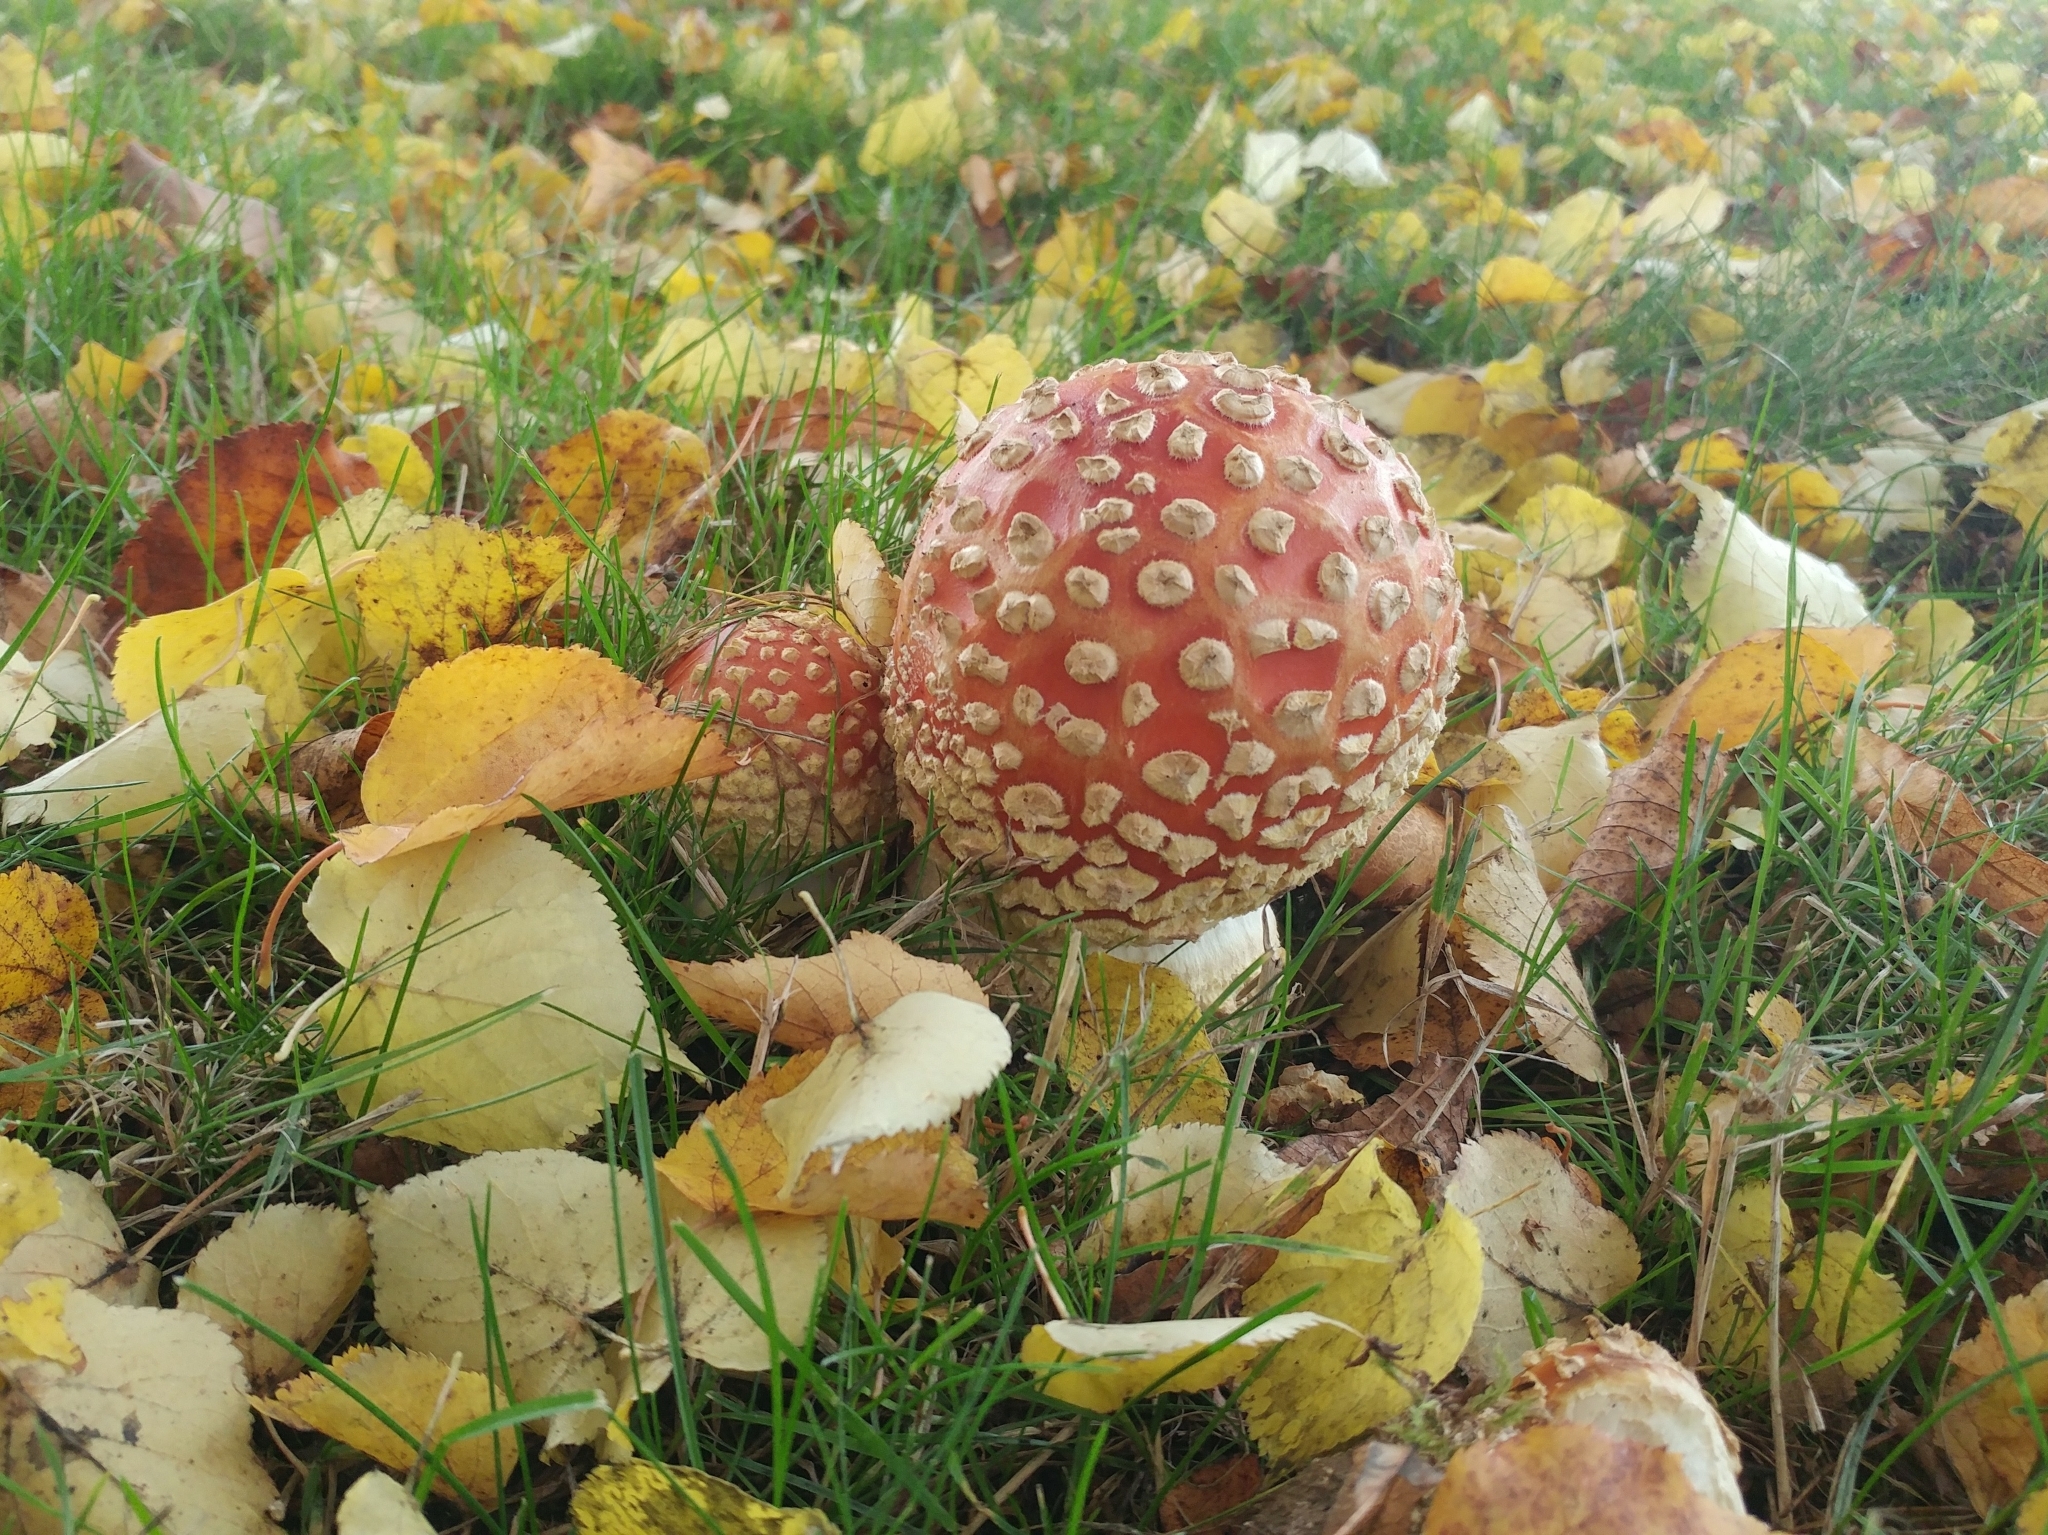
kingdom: Fungi
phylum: Basidiomycota
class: Agaricomycetes
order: Agaricales
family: Amanitaceae
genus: Amanita
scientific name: Amanita muscaria
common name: Fly agaric
